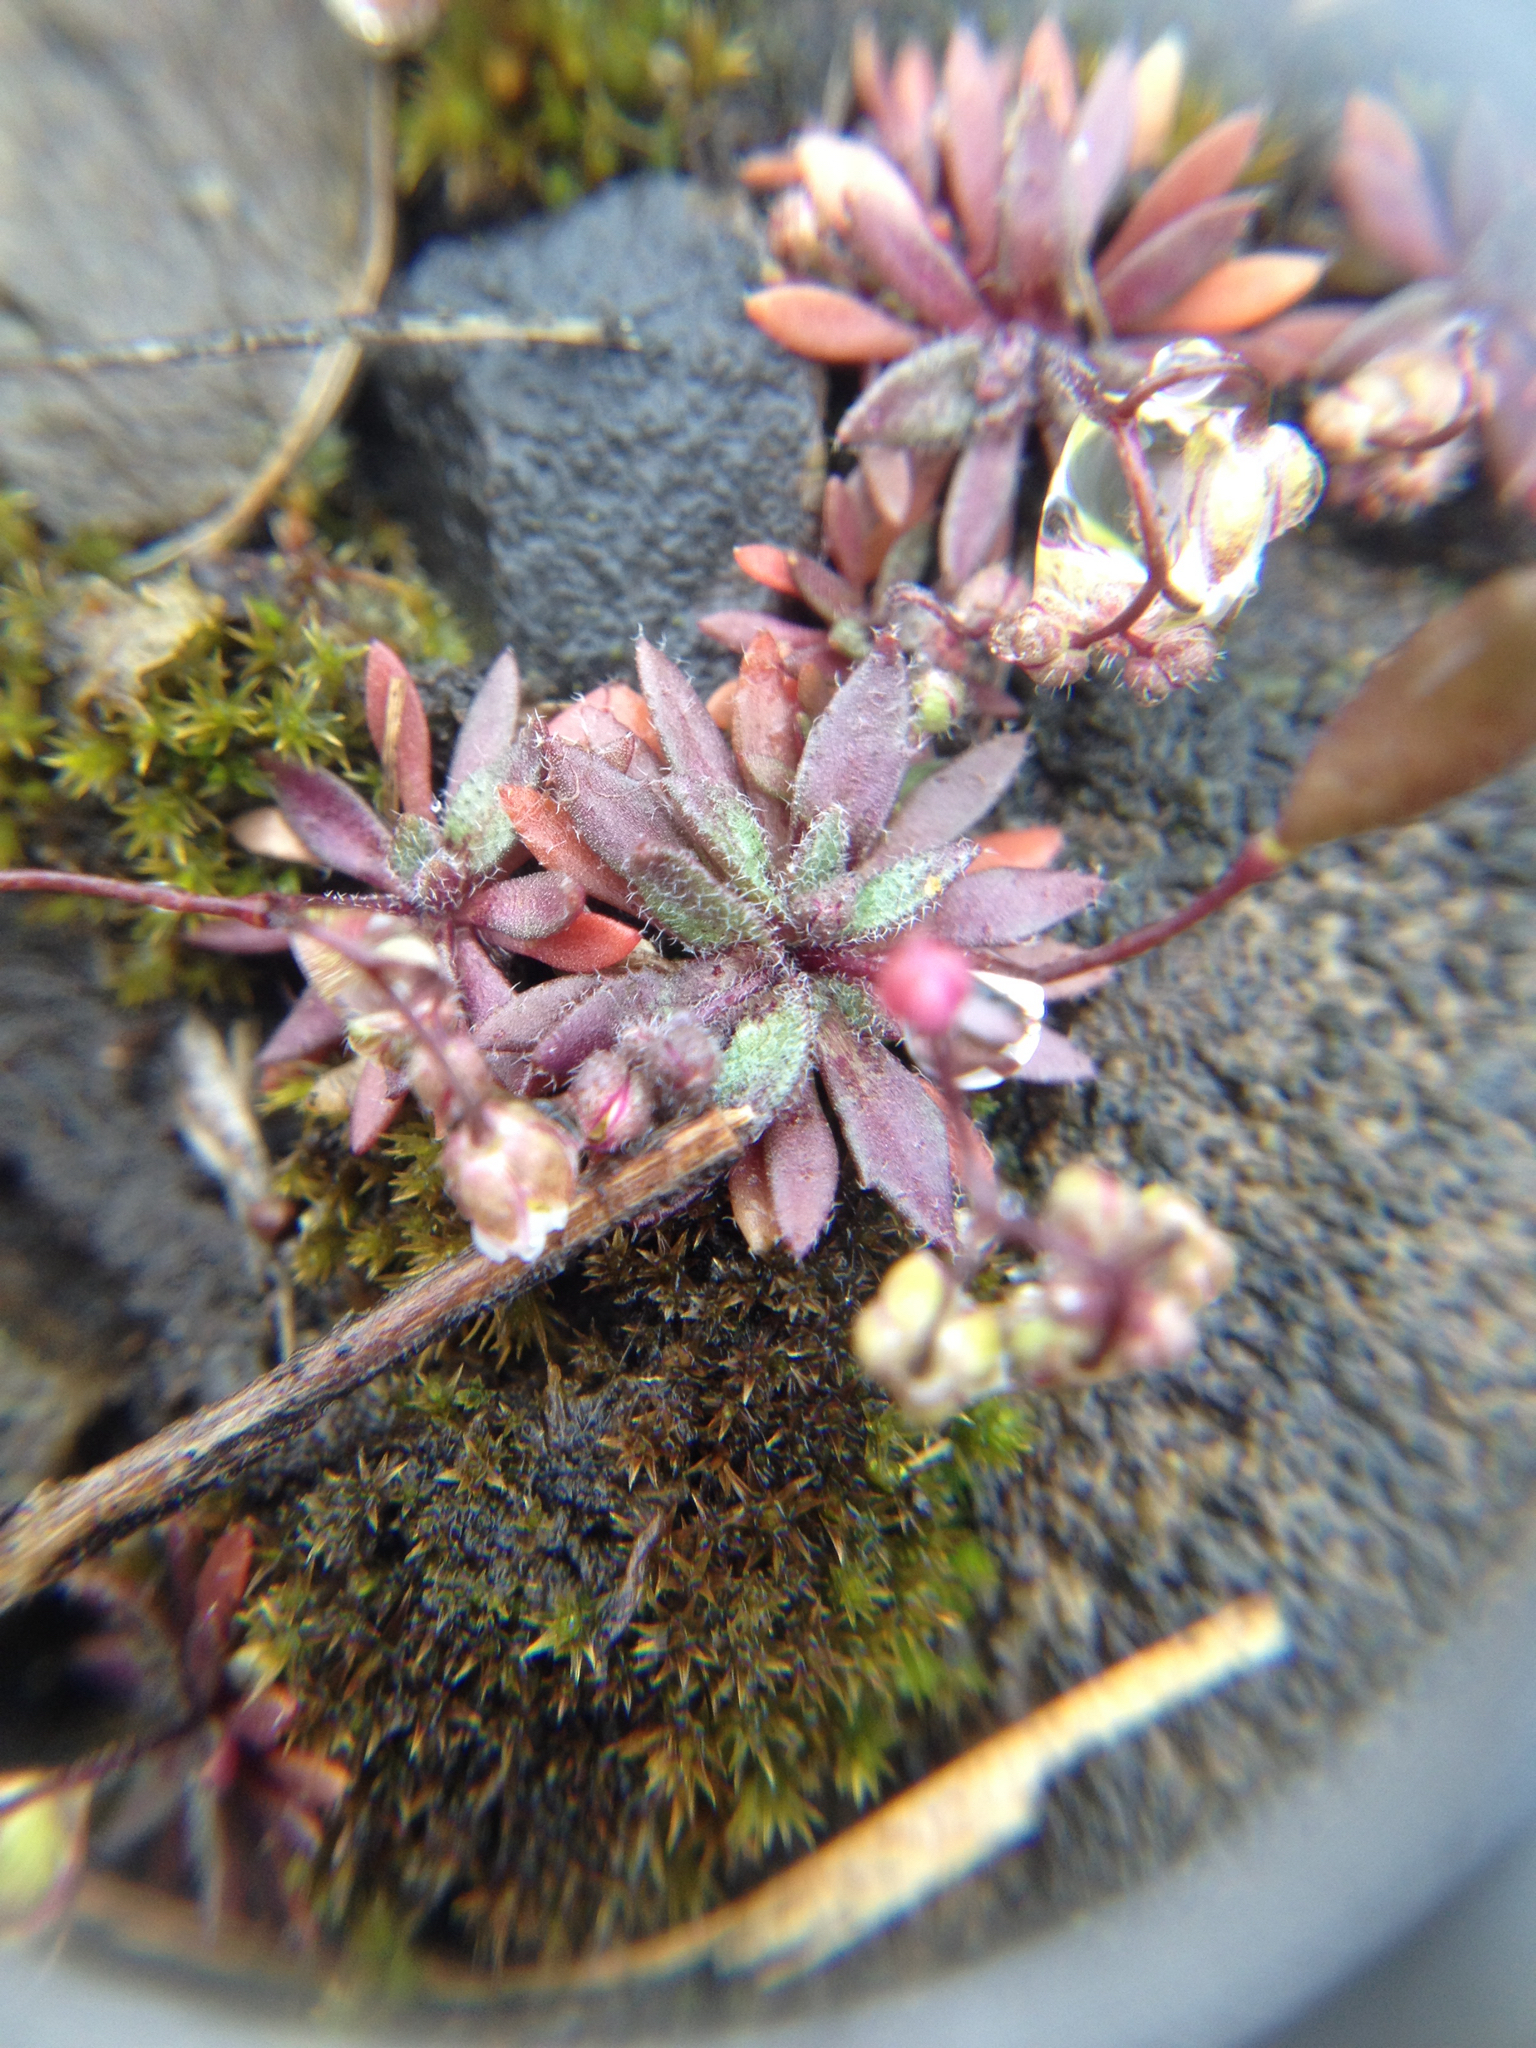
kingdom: Plantae
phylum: Tracheophyta
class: Magnoliopsida
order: Brassicales
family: Brassicaceae
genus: Draba
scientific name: Draba verna
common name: Spring draba
